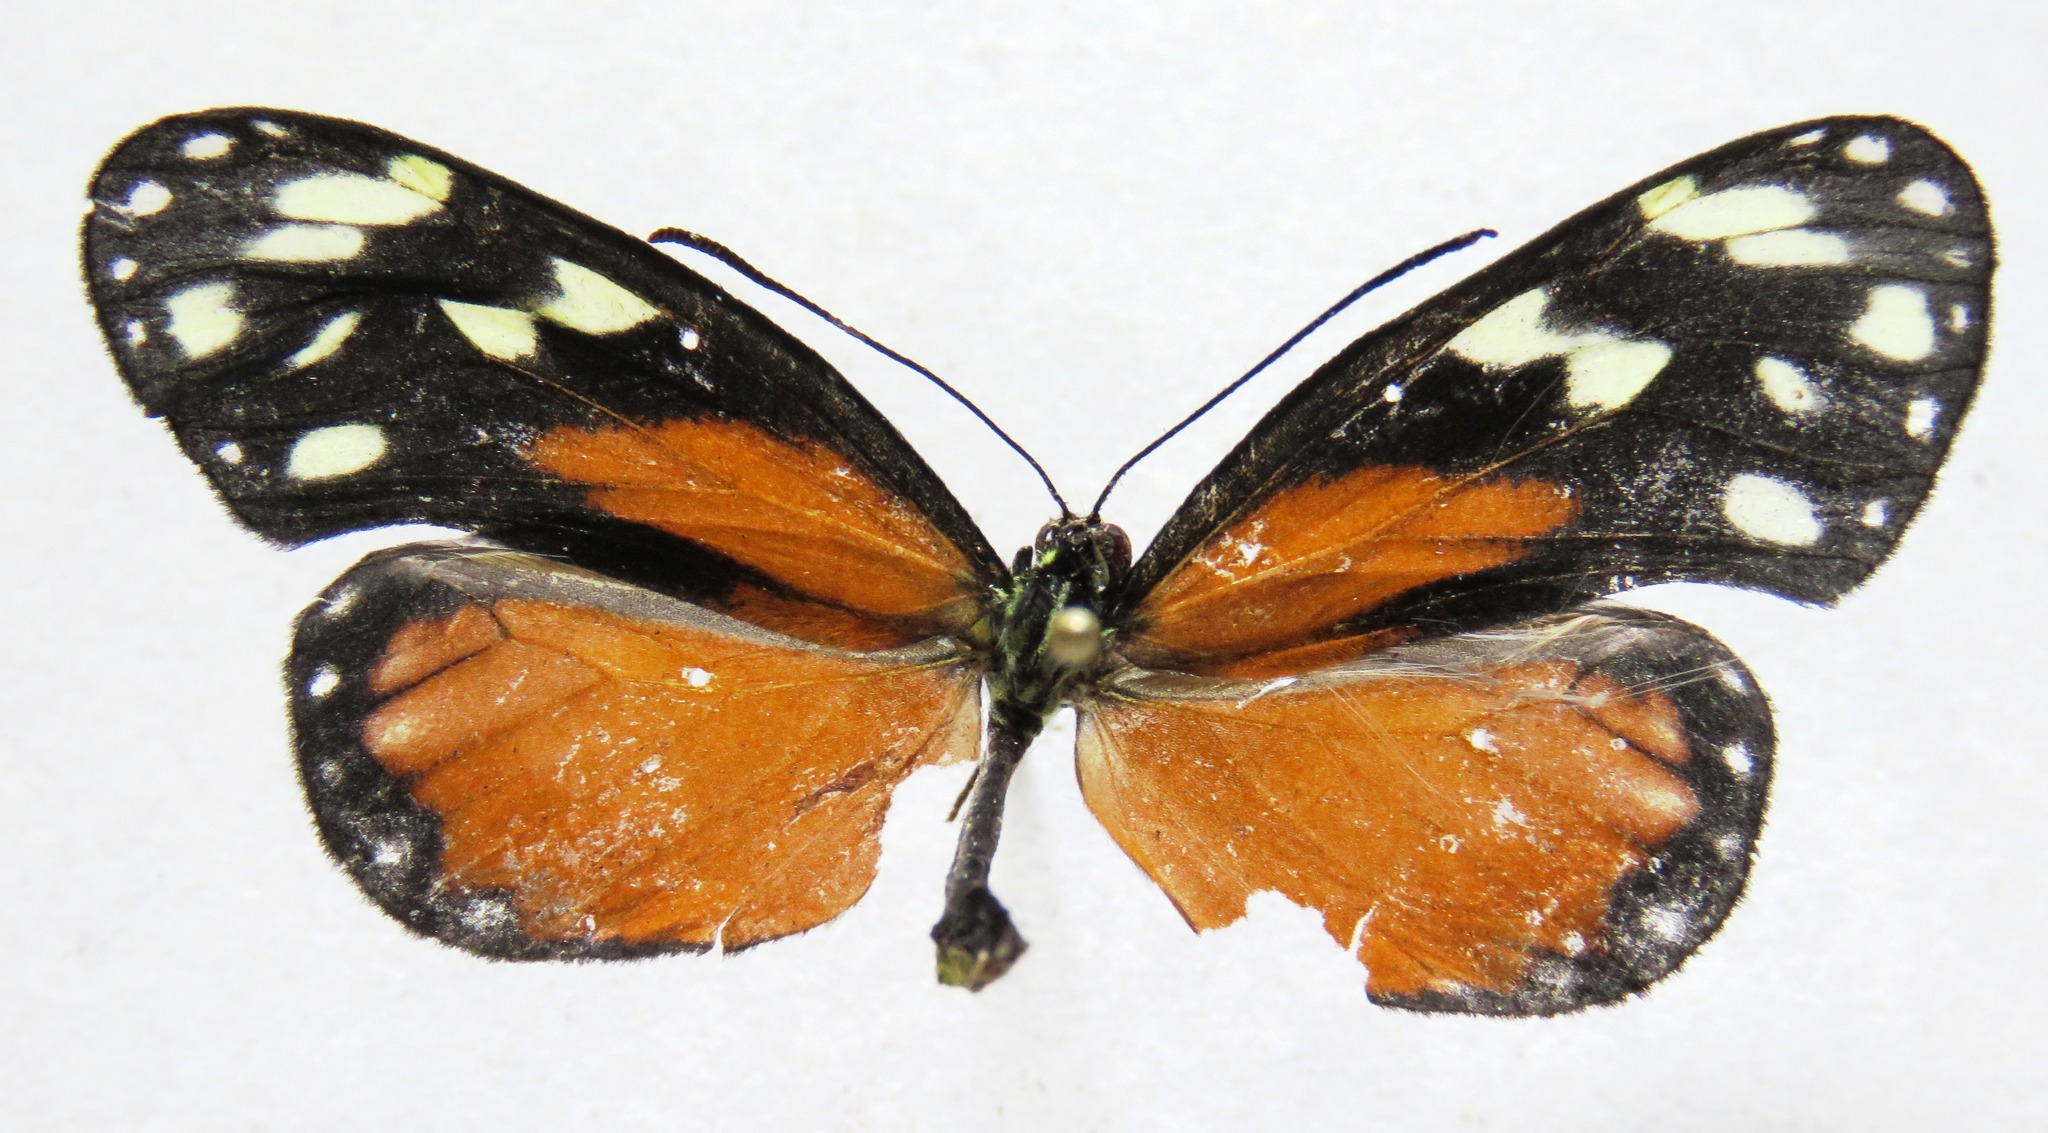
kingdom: Animalia
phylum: Arthropoda
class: Insecta
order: Lepidoptera
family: Nymphalidae
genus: Napeogenes
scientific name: Napeogenes tolosa
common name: Tollhouse ticlear
